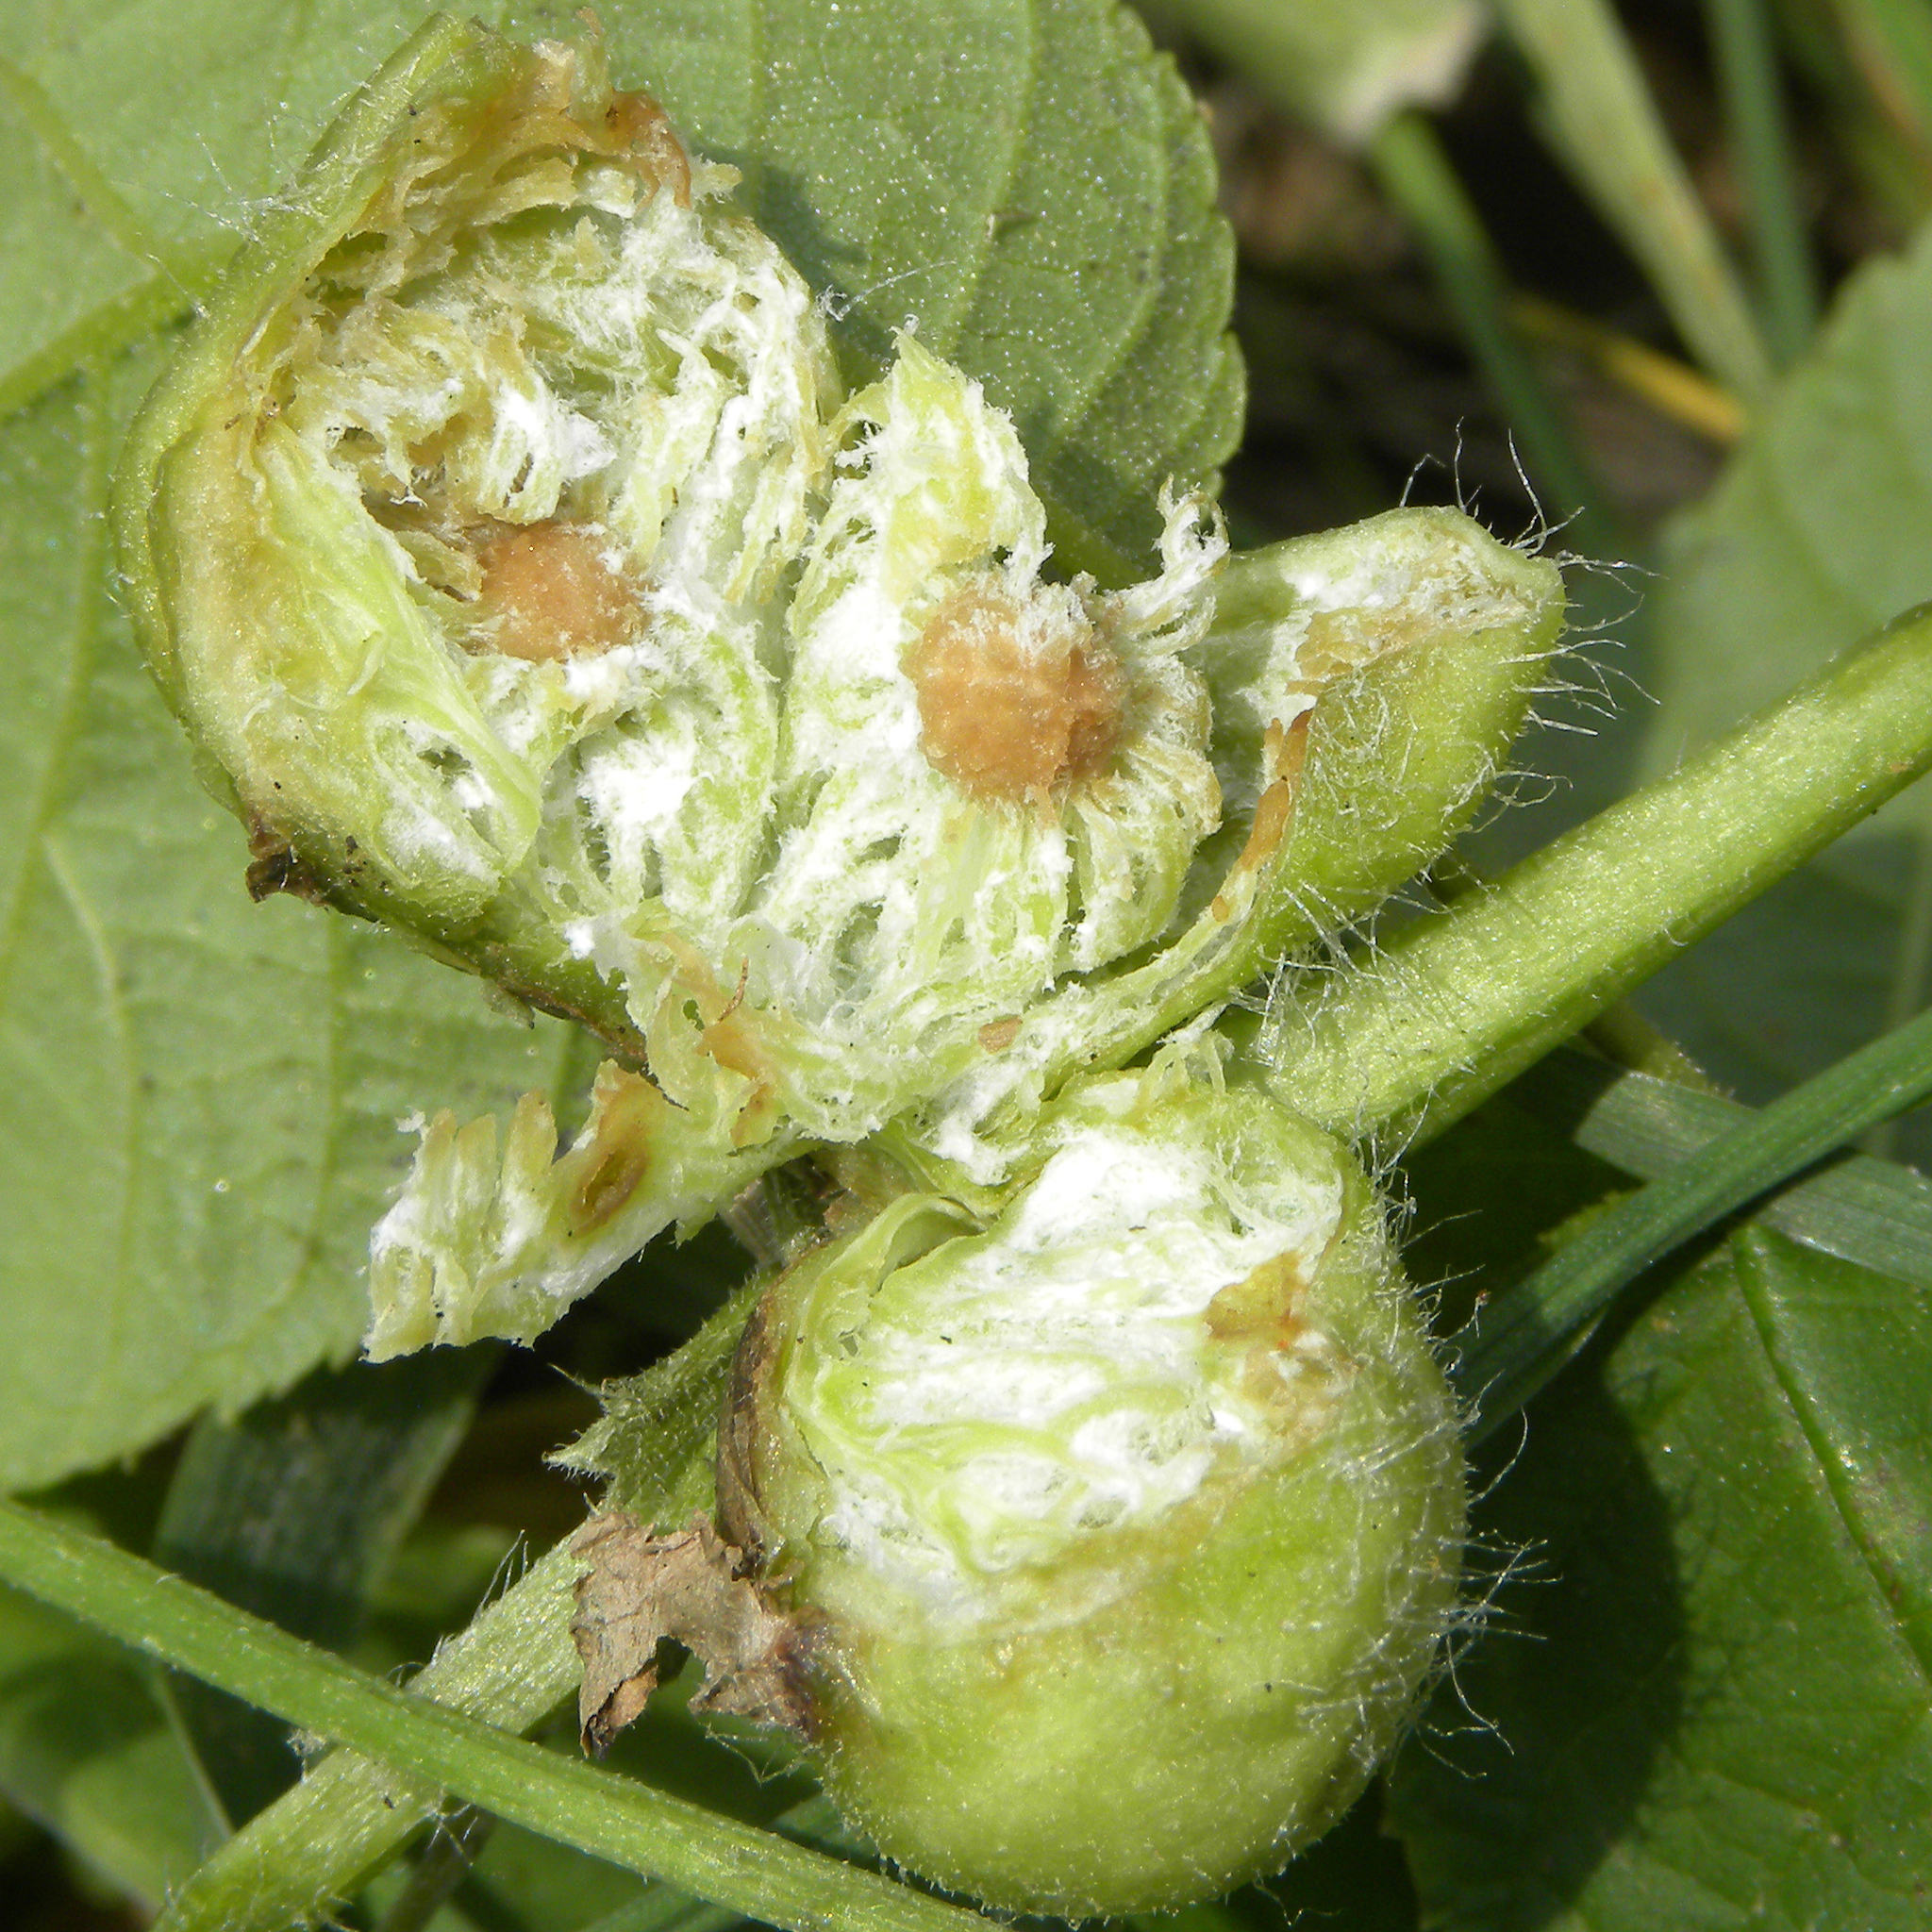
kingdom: Animalia
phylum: Arthropoda
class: Insecta
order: Hymenoptera
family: Cynipidae
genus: Liposthenes
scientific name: Liposthenes glechomae
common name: Gall wasp
